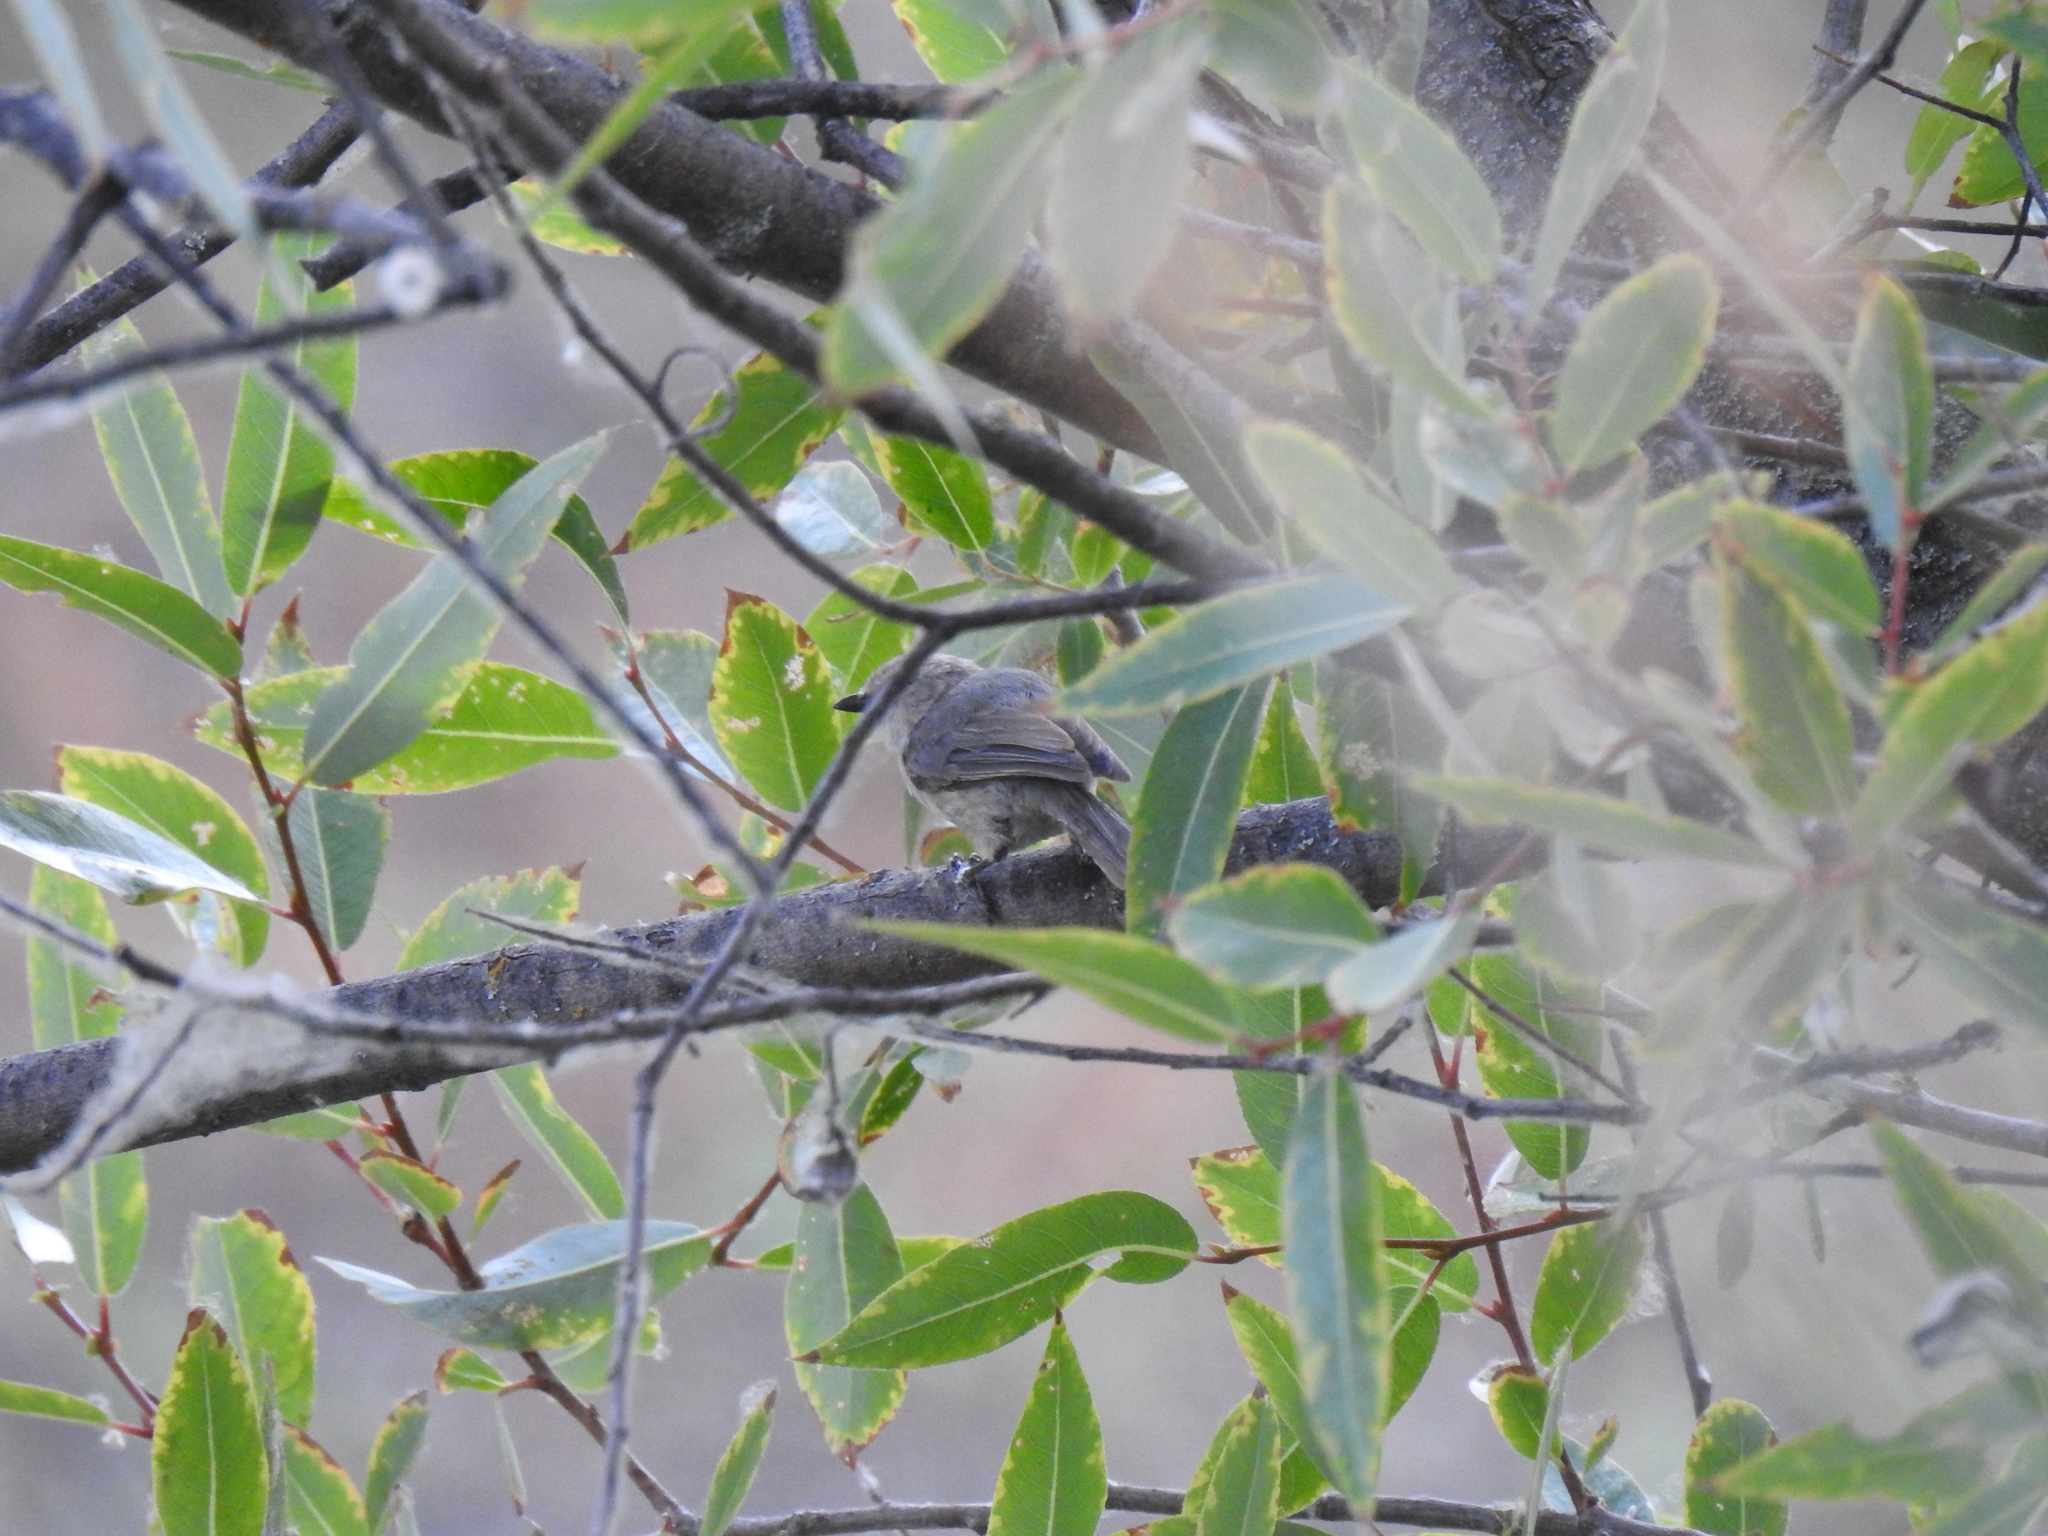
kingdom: Animalia
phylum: Chordata
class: Aves
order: Passeriformes
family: Aegithalidae
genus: Psaltriparus
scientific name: Psaltriparus minimus
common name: American bushtit
